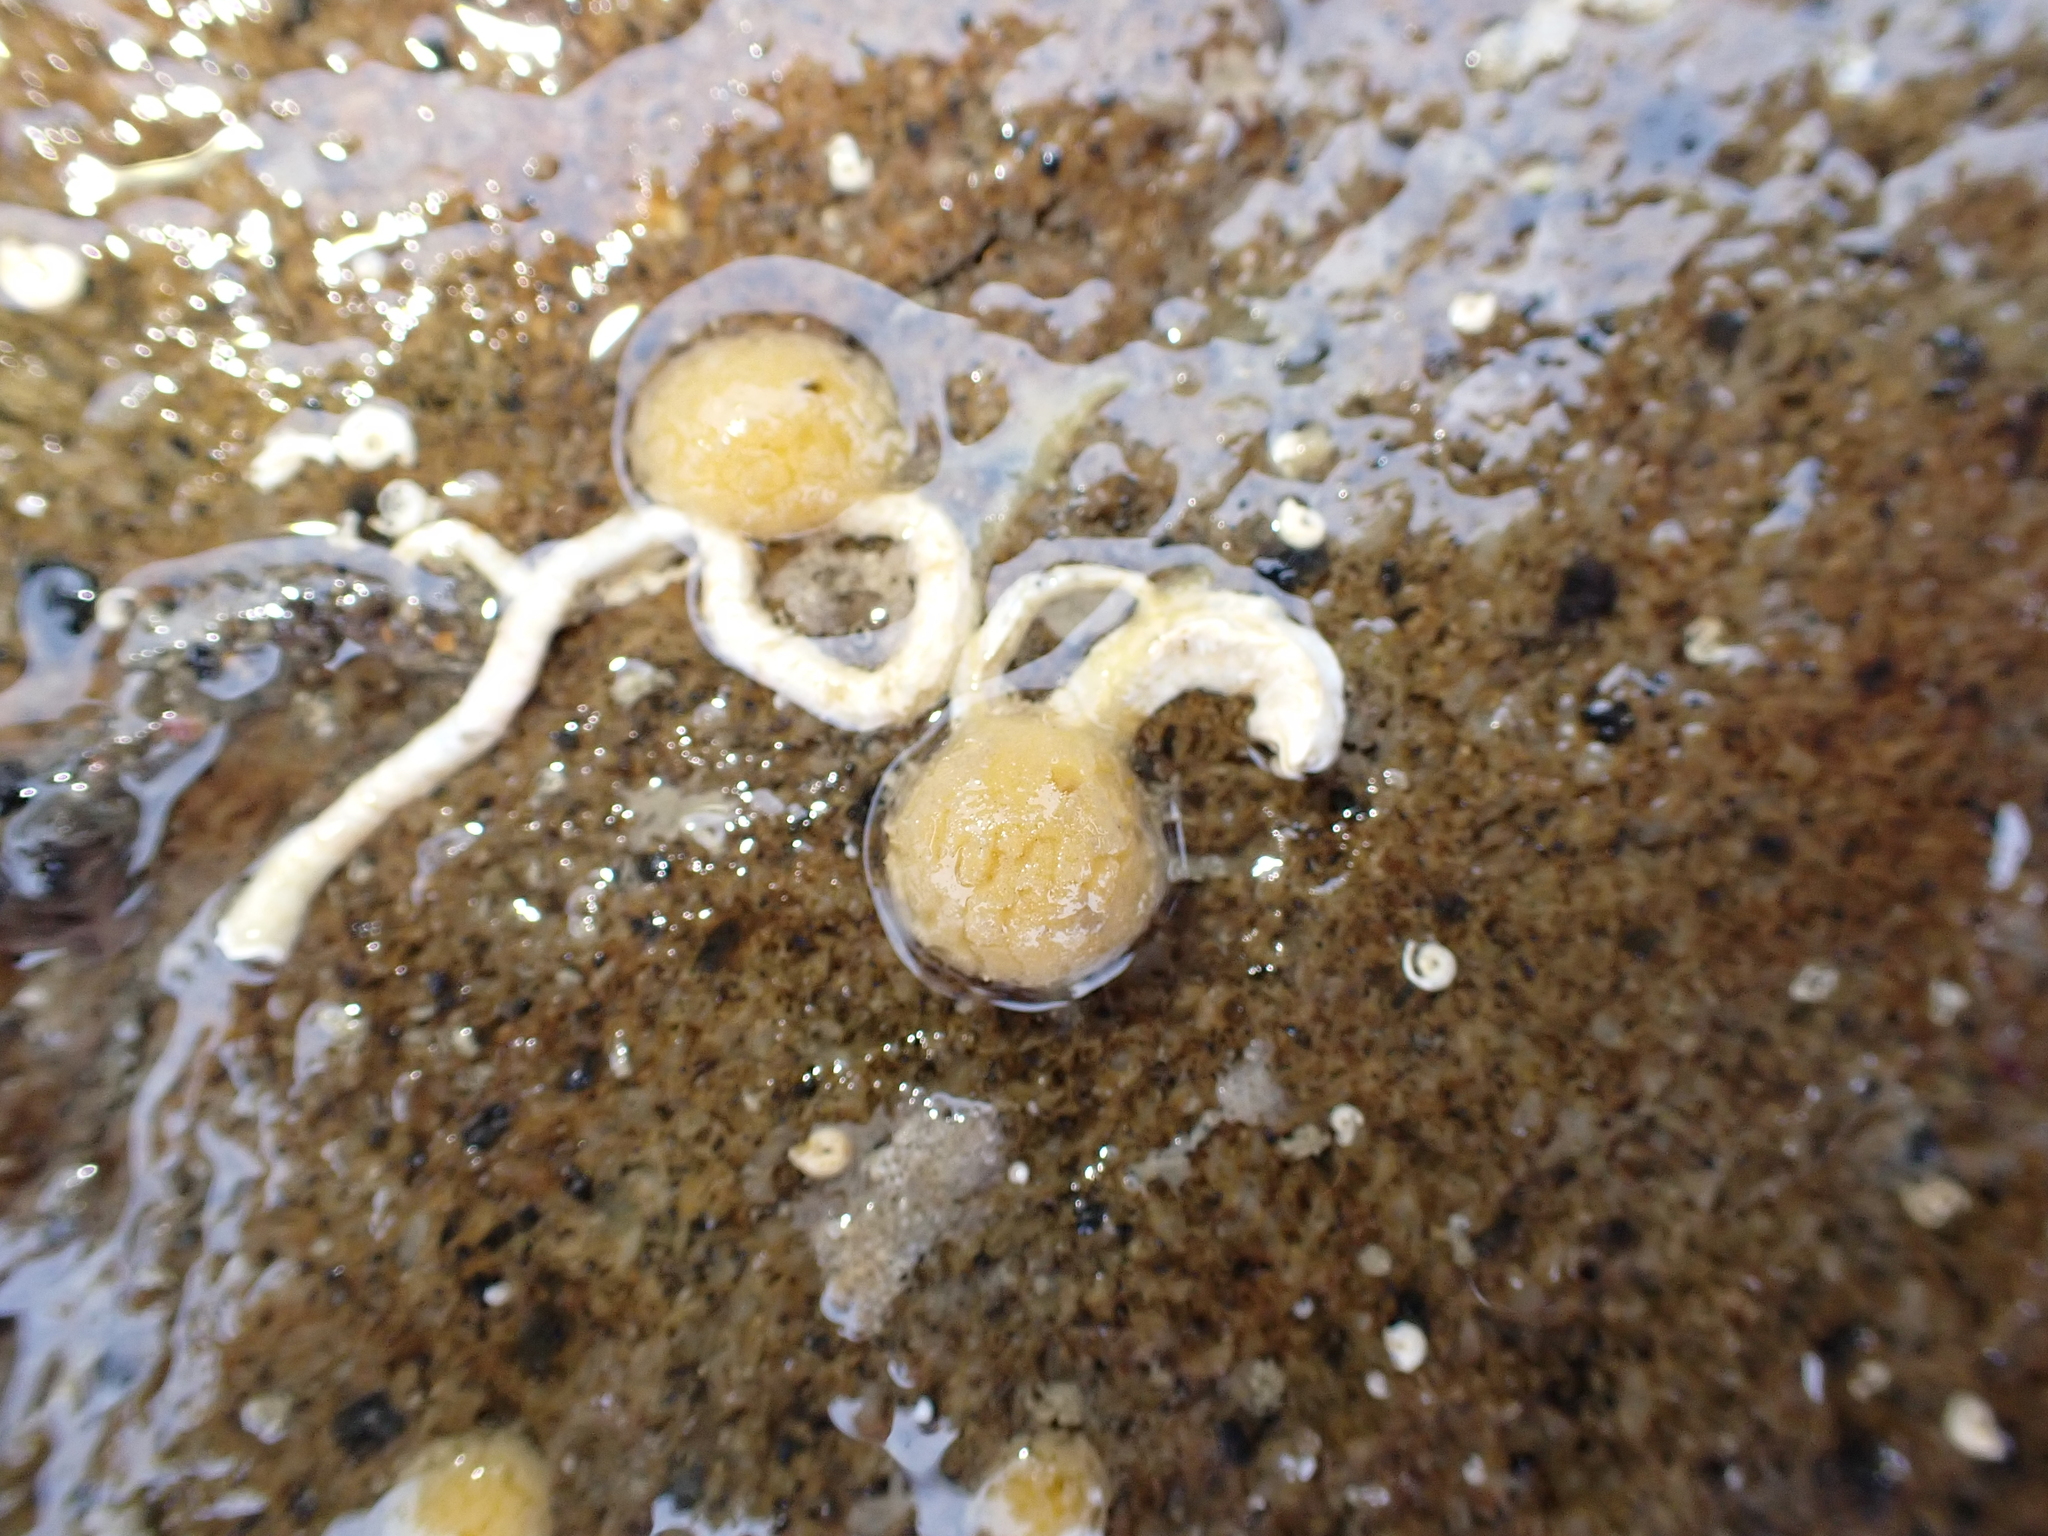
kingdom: Animalia
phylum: Porifera
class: Demospongiae
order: Tethyida
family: Tethyidae
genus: Tethya
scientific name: Tethya stolonifera
